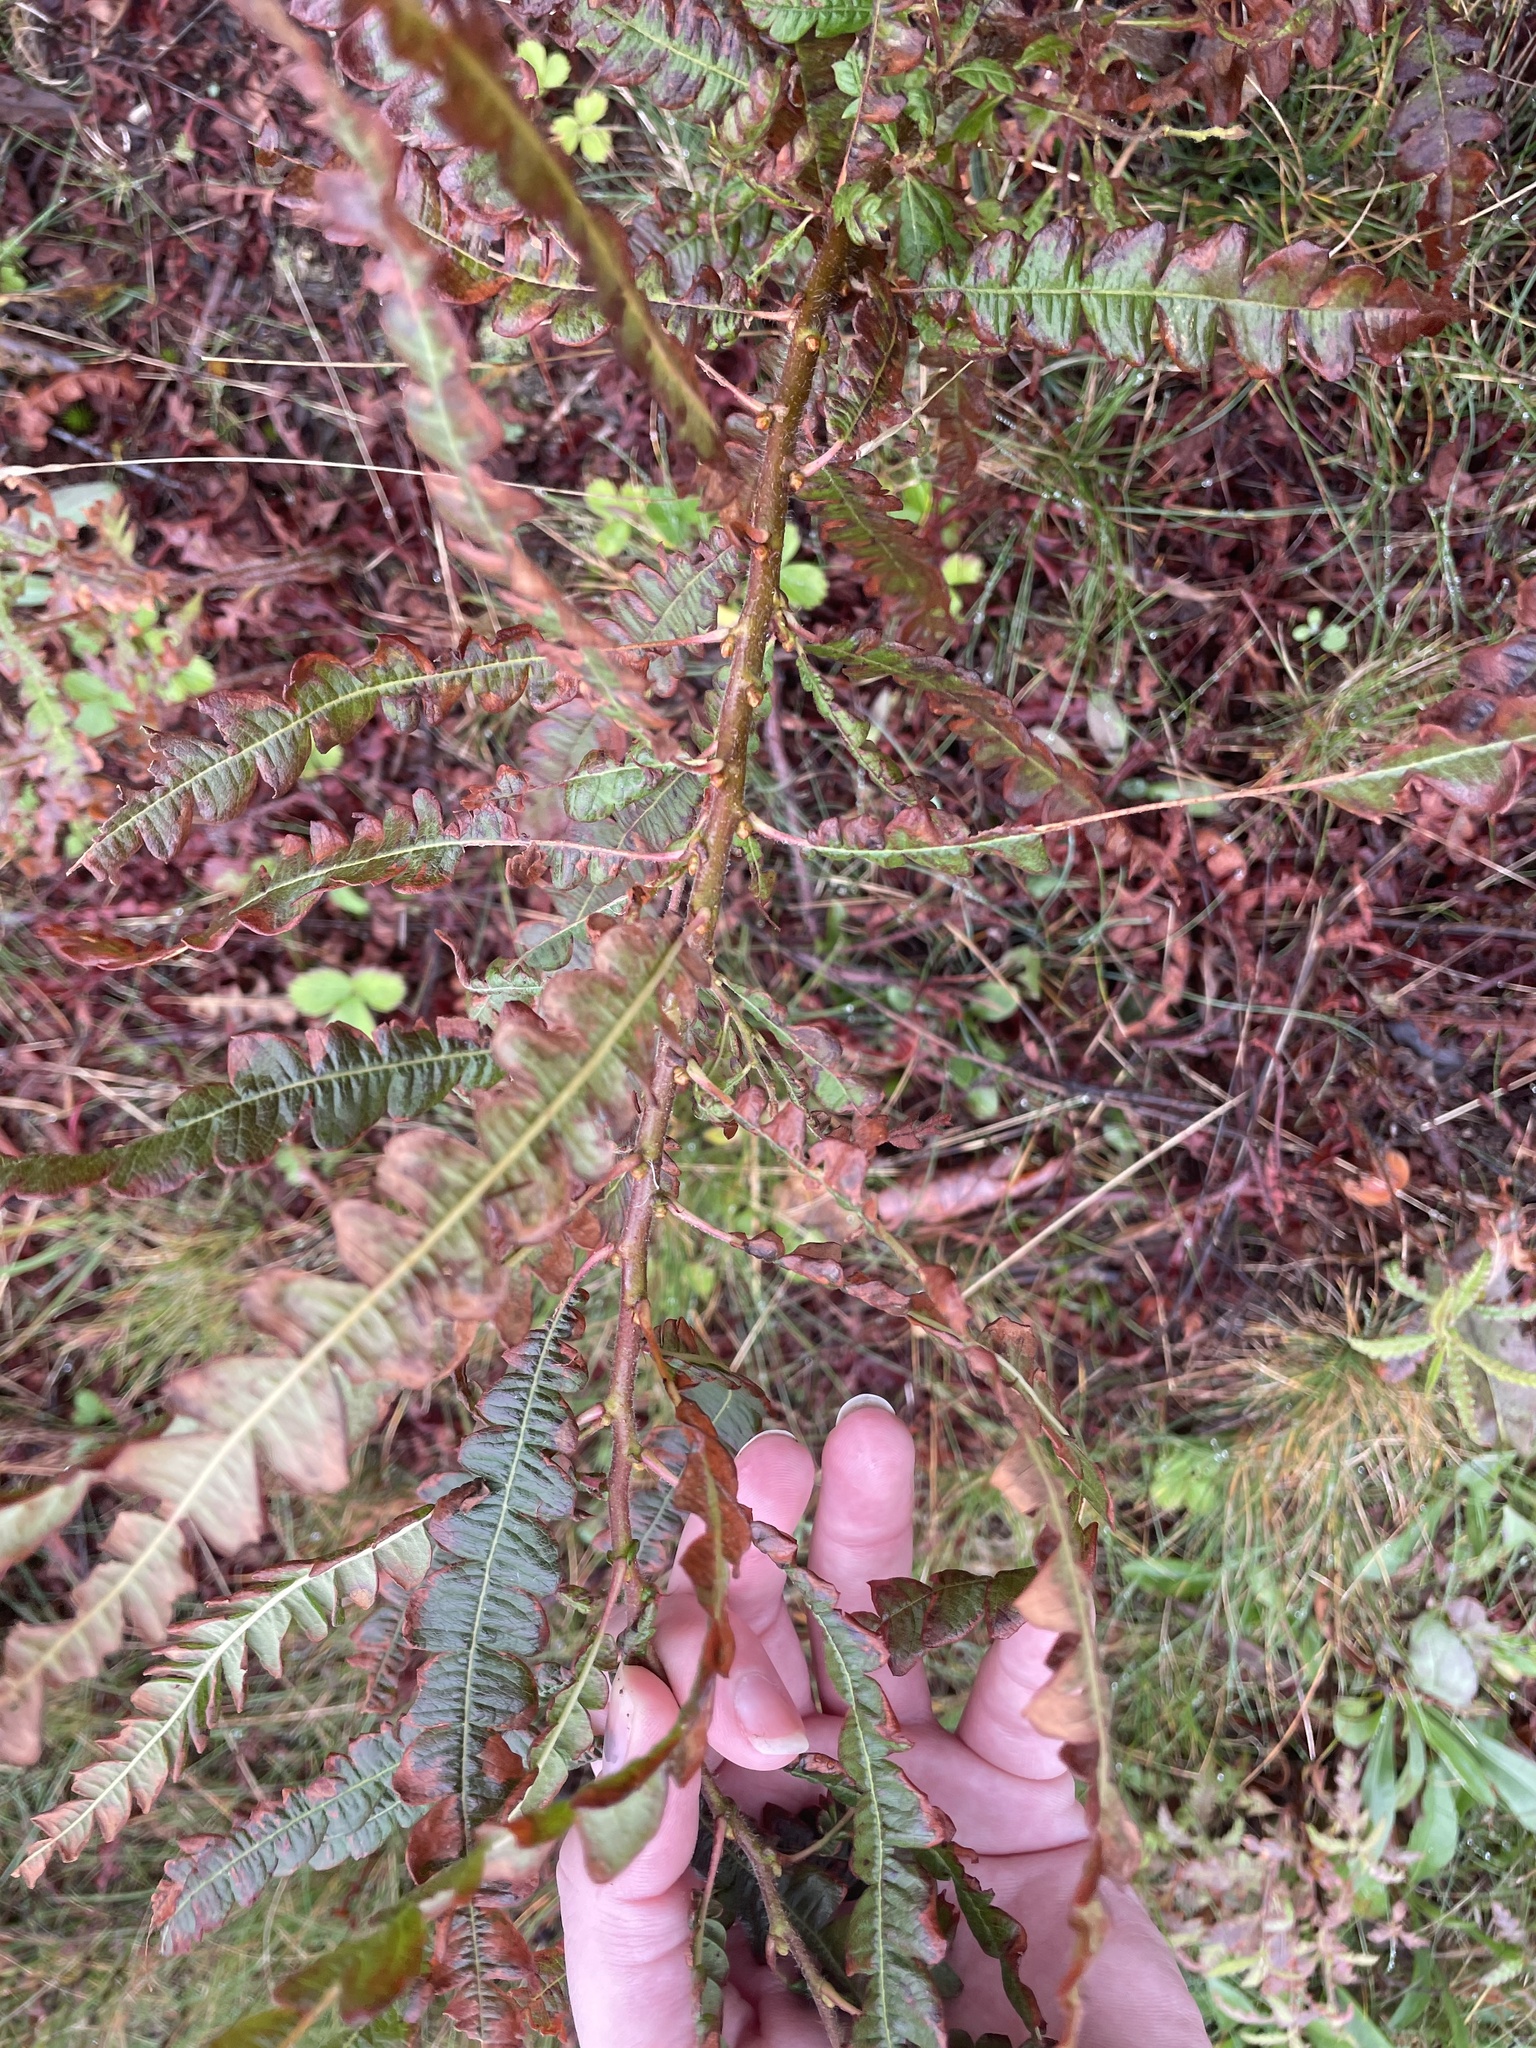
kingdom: Plantae
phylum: Tracheophyta
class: Magnoliopsida
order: Fagales
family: Myricaceae
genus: Comptonia
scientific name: Comptonia peregrina
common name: Sweet-fern
